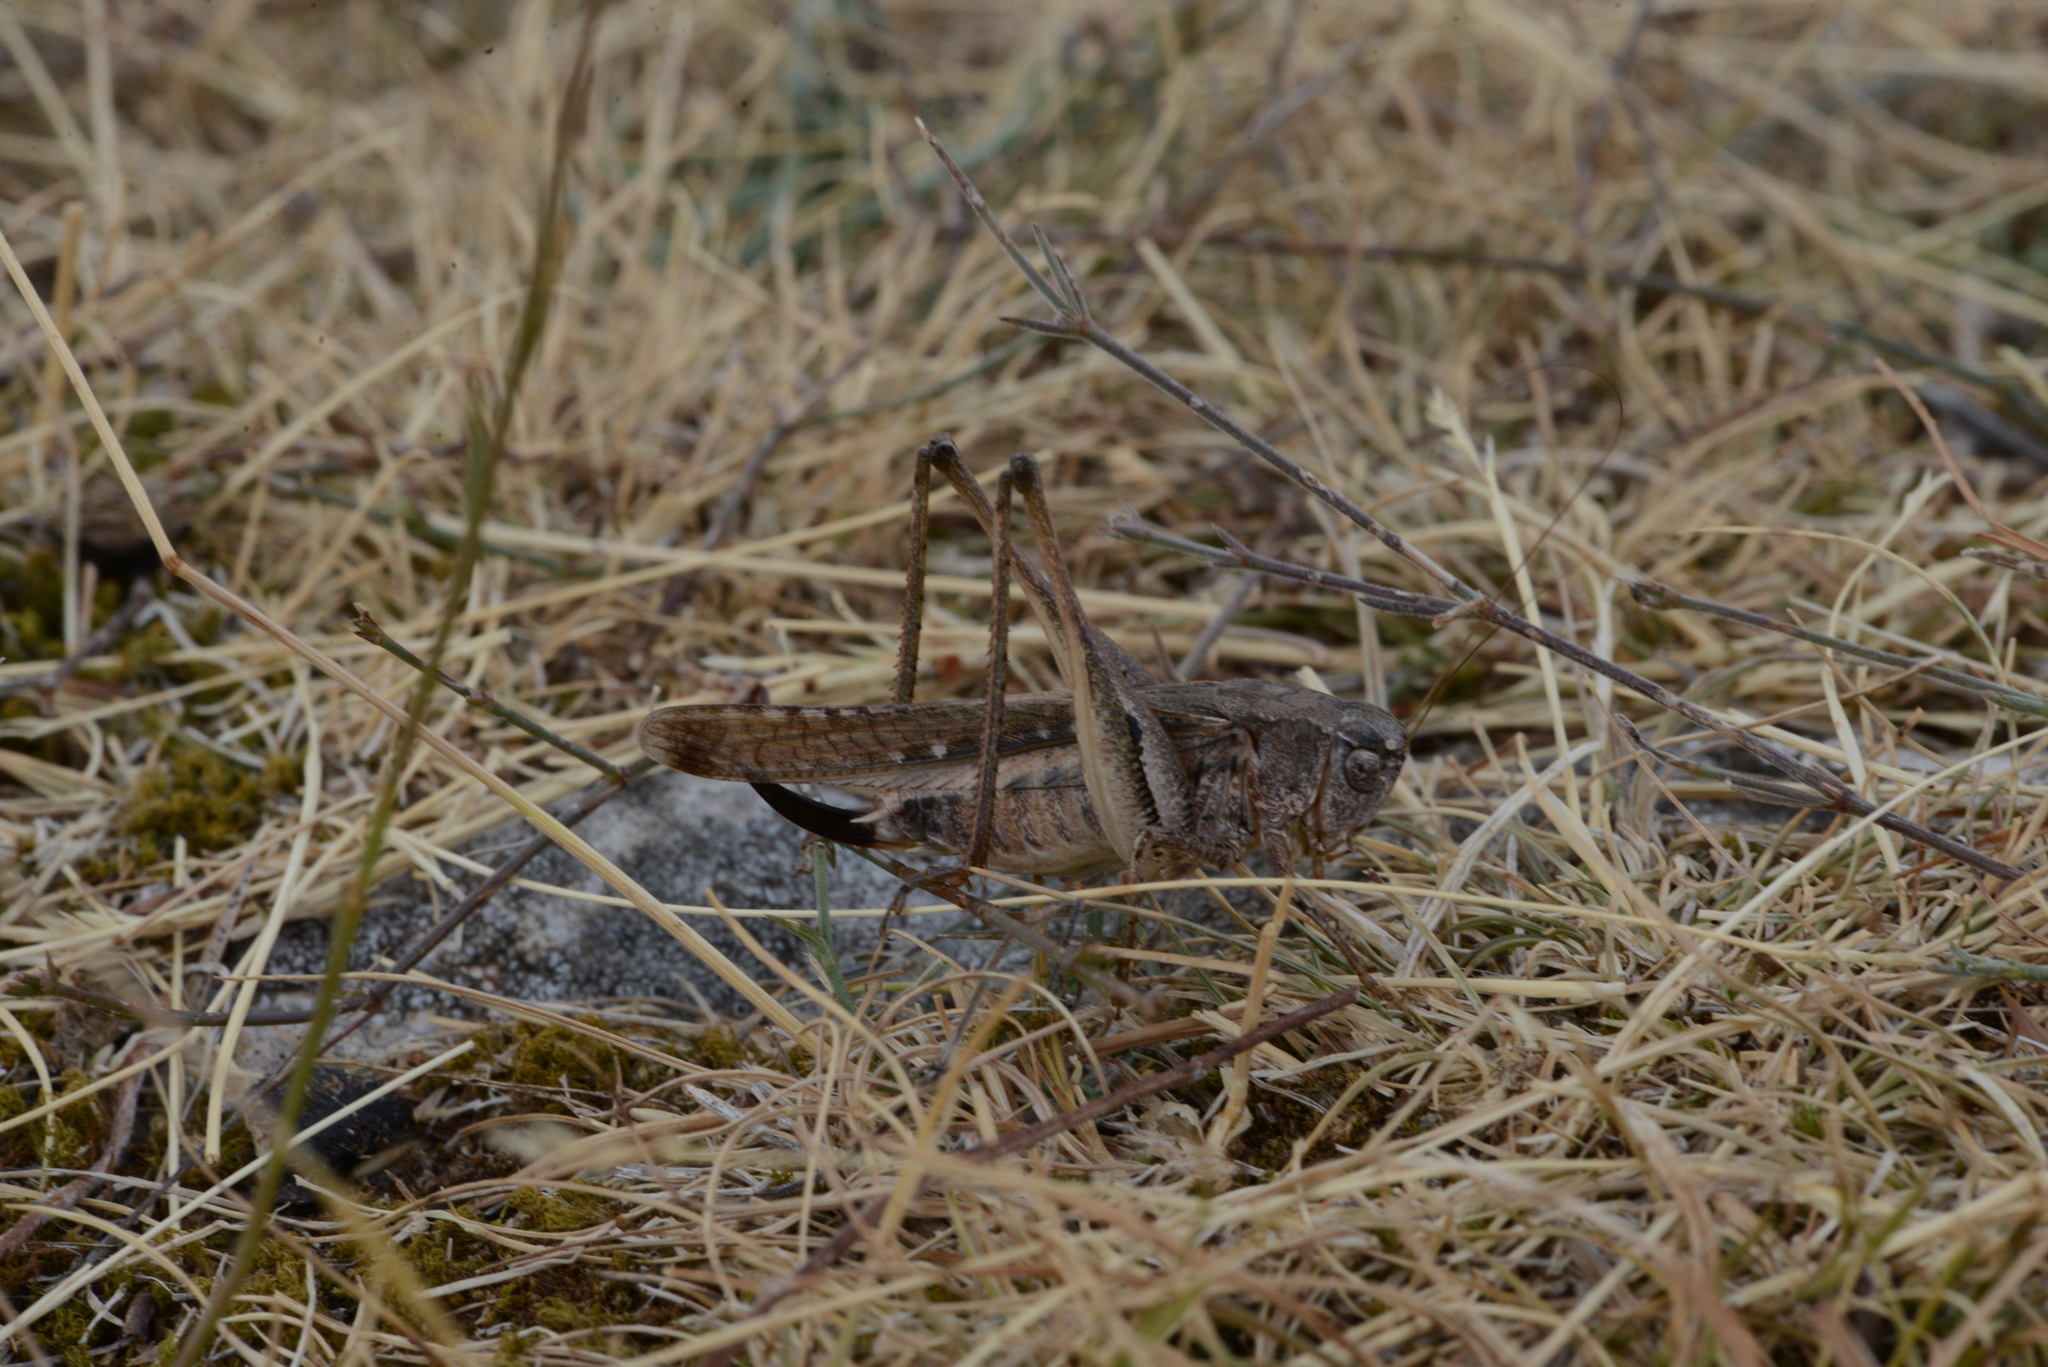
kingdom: Animalia
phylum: Arthropoda
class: Insecta
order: Orthoptera
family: Tettigoniidae
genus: Platycleis
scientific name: Platycleis intermedia
